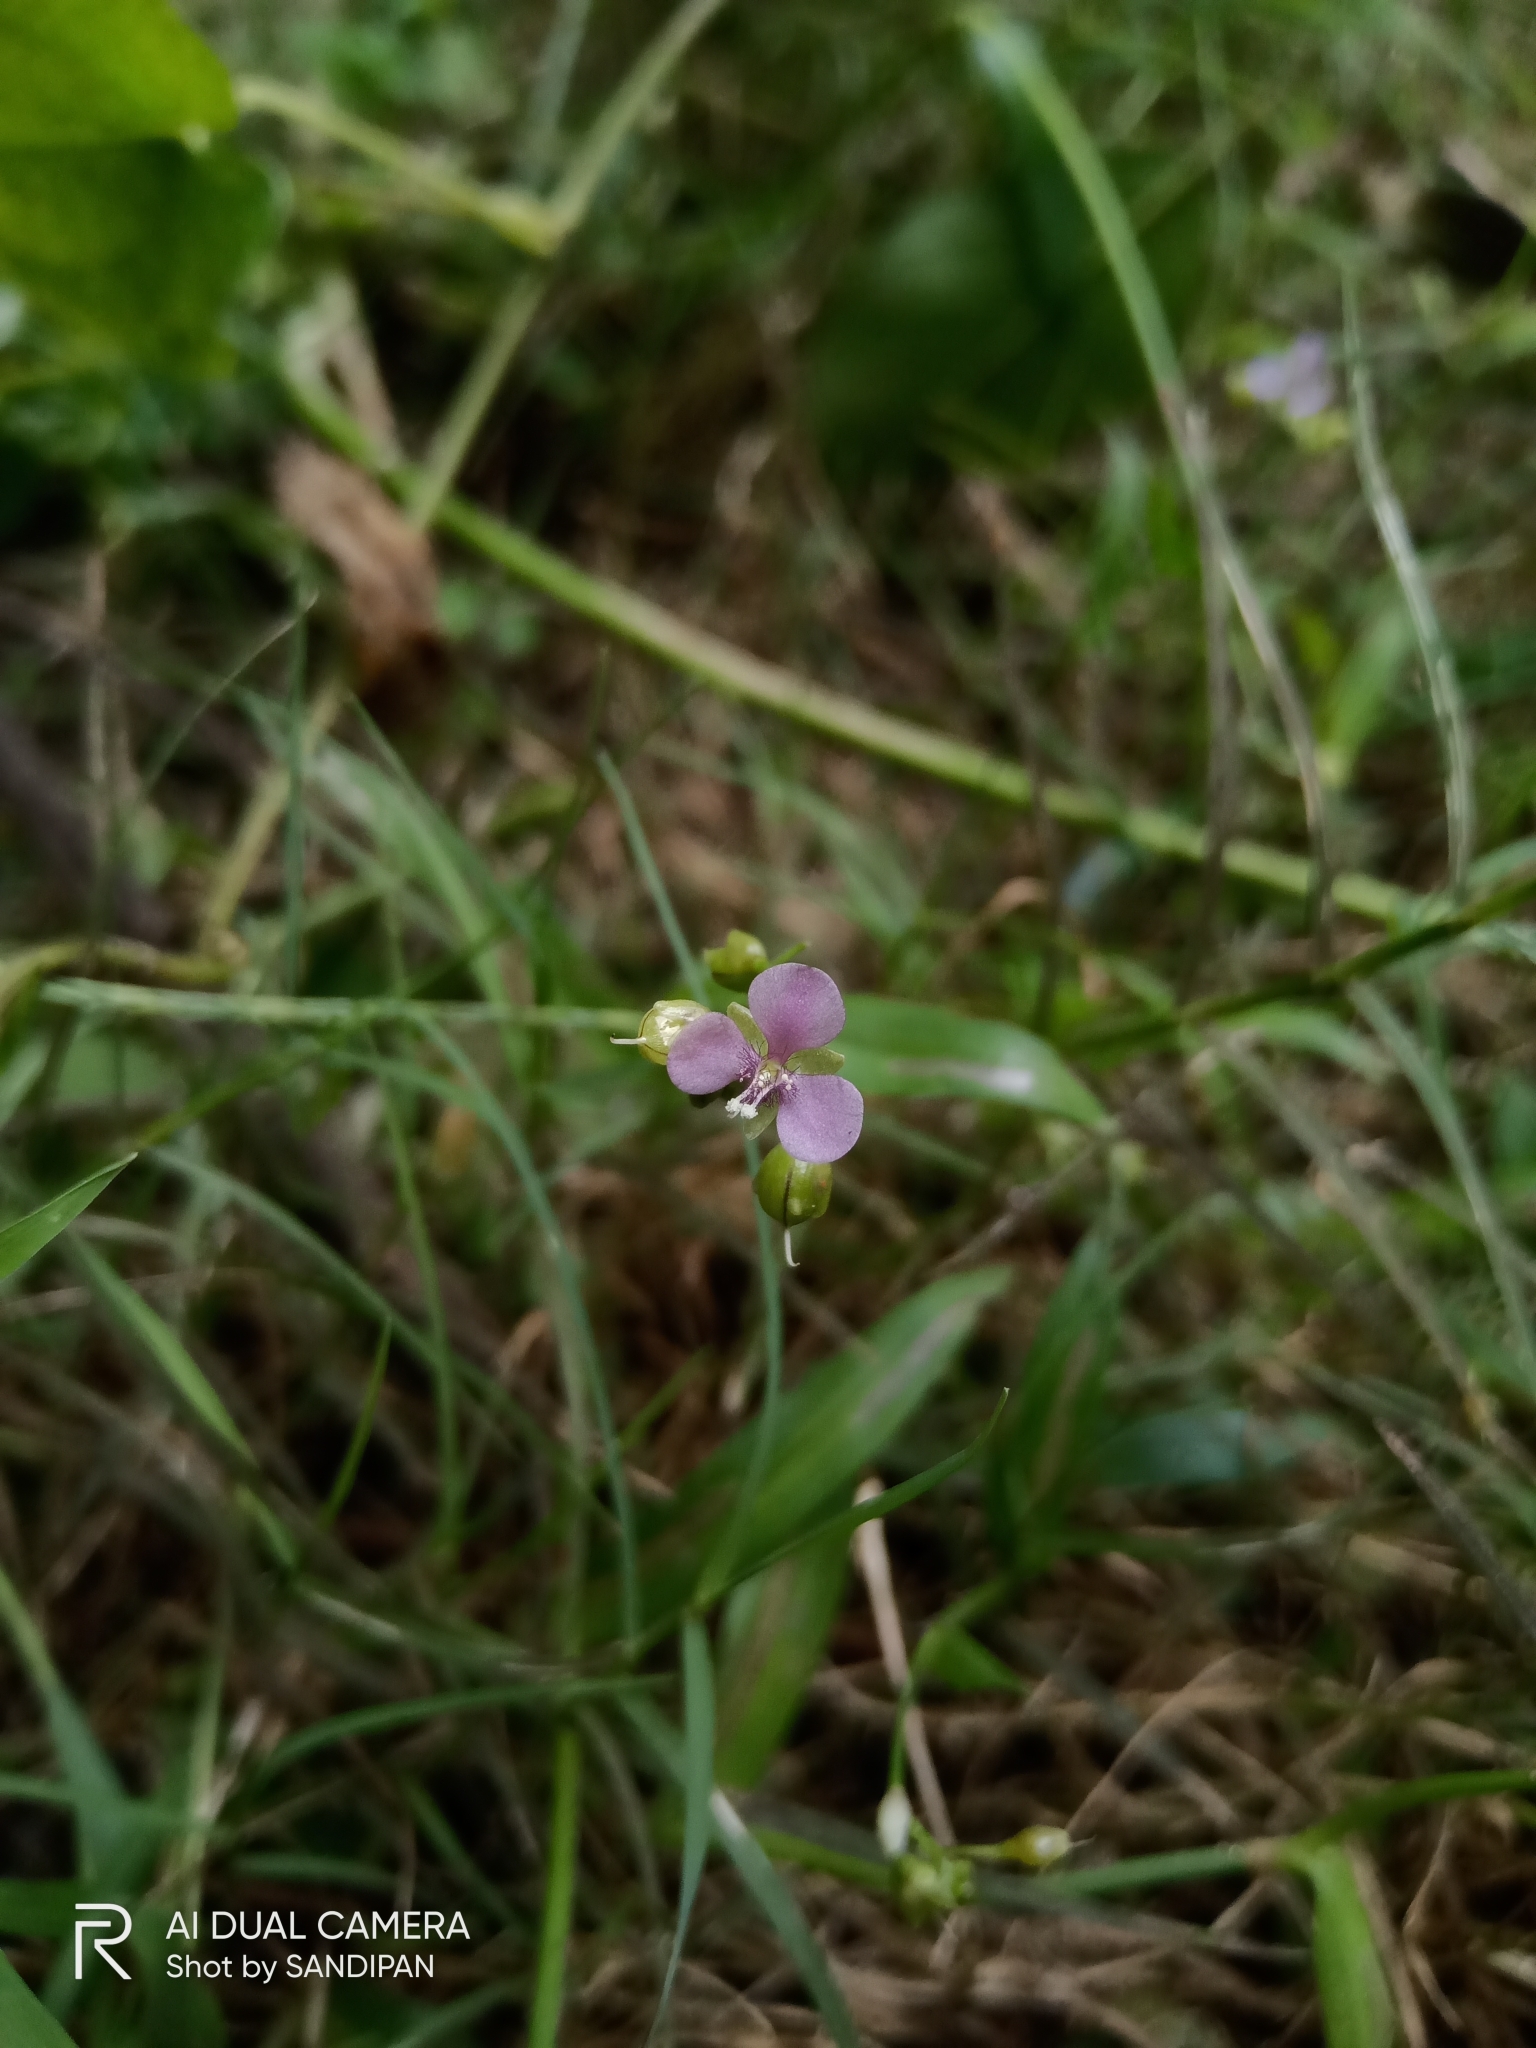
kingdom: Plantae
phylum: Tracheophyta
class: Liliopsida
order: Commelinales
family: Commelinaceae
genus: Murdannia
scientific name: Murdannia nudiflora
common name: Nakedstem dewflower
